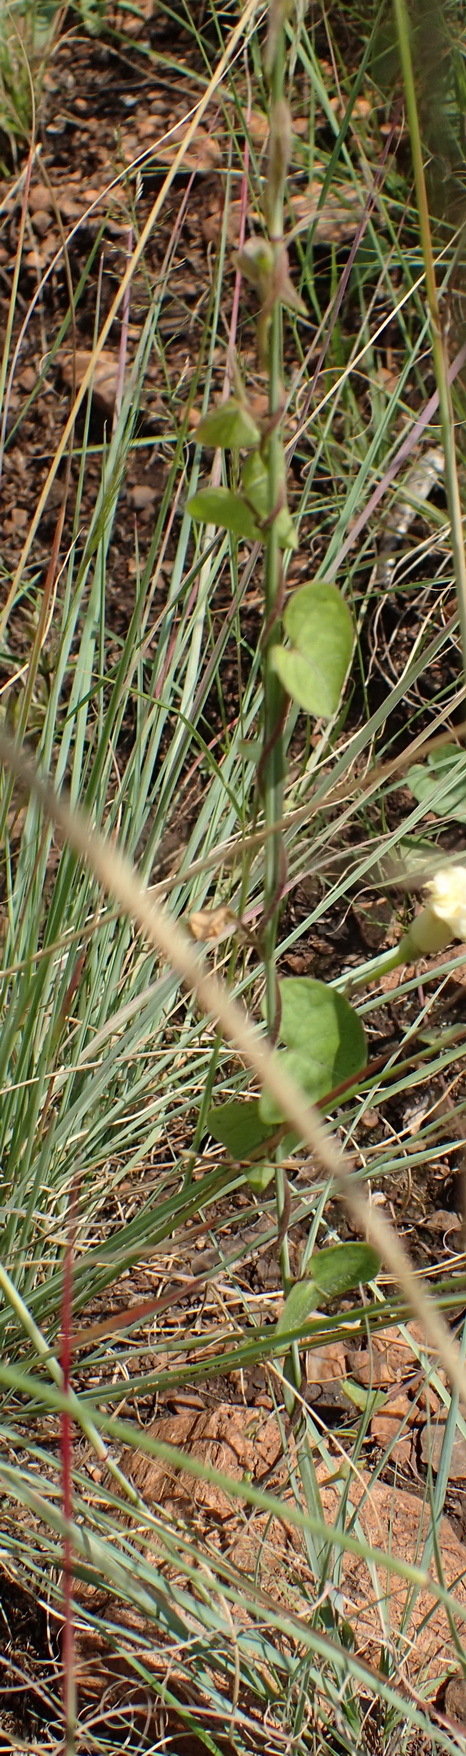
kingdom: Plantae
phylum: Tracheophyta
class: Magnoliopsida
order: Solanales
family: Convolvulaceae
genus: Ipomoea
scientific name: Ipomoea obscura
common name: Obscure morning-glory
